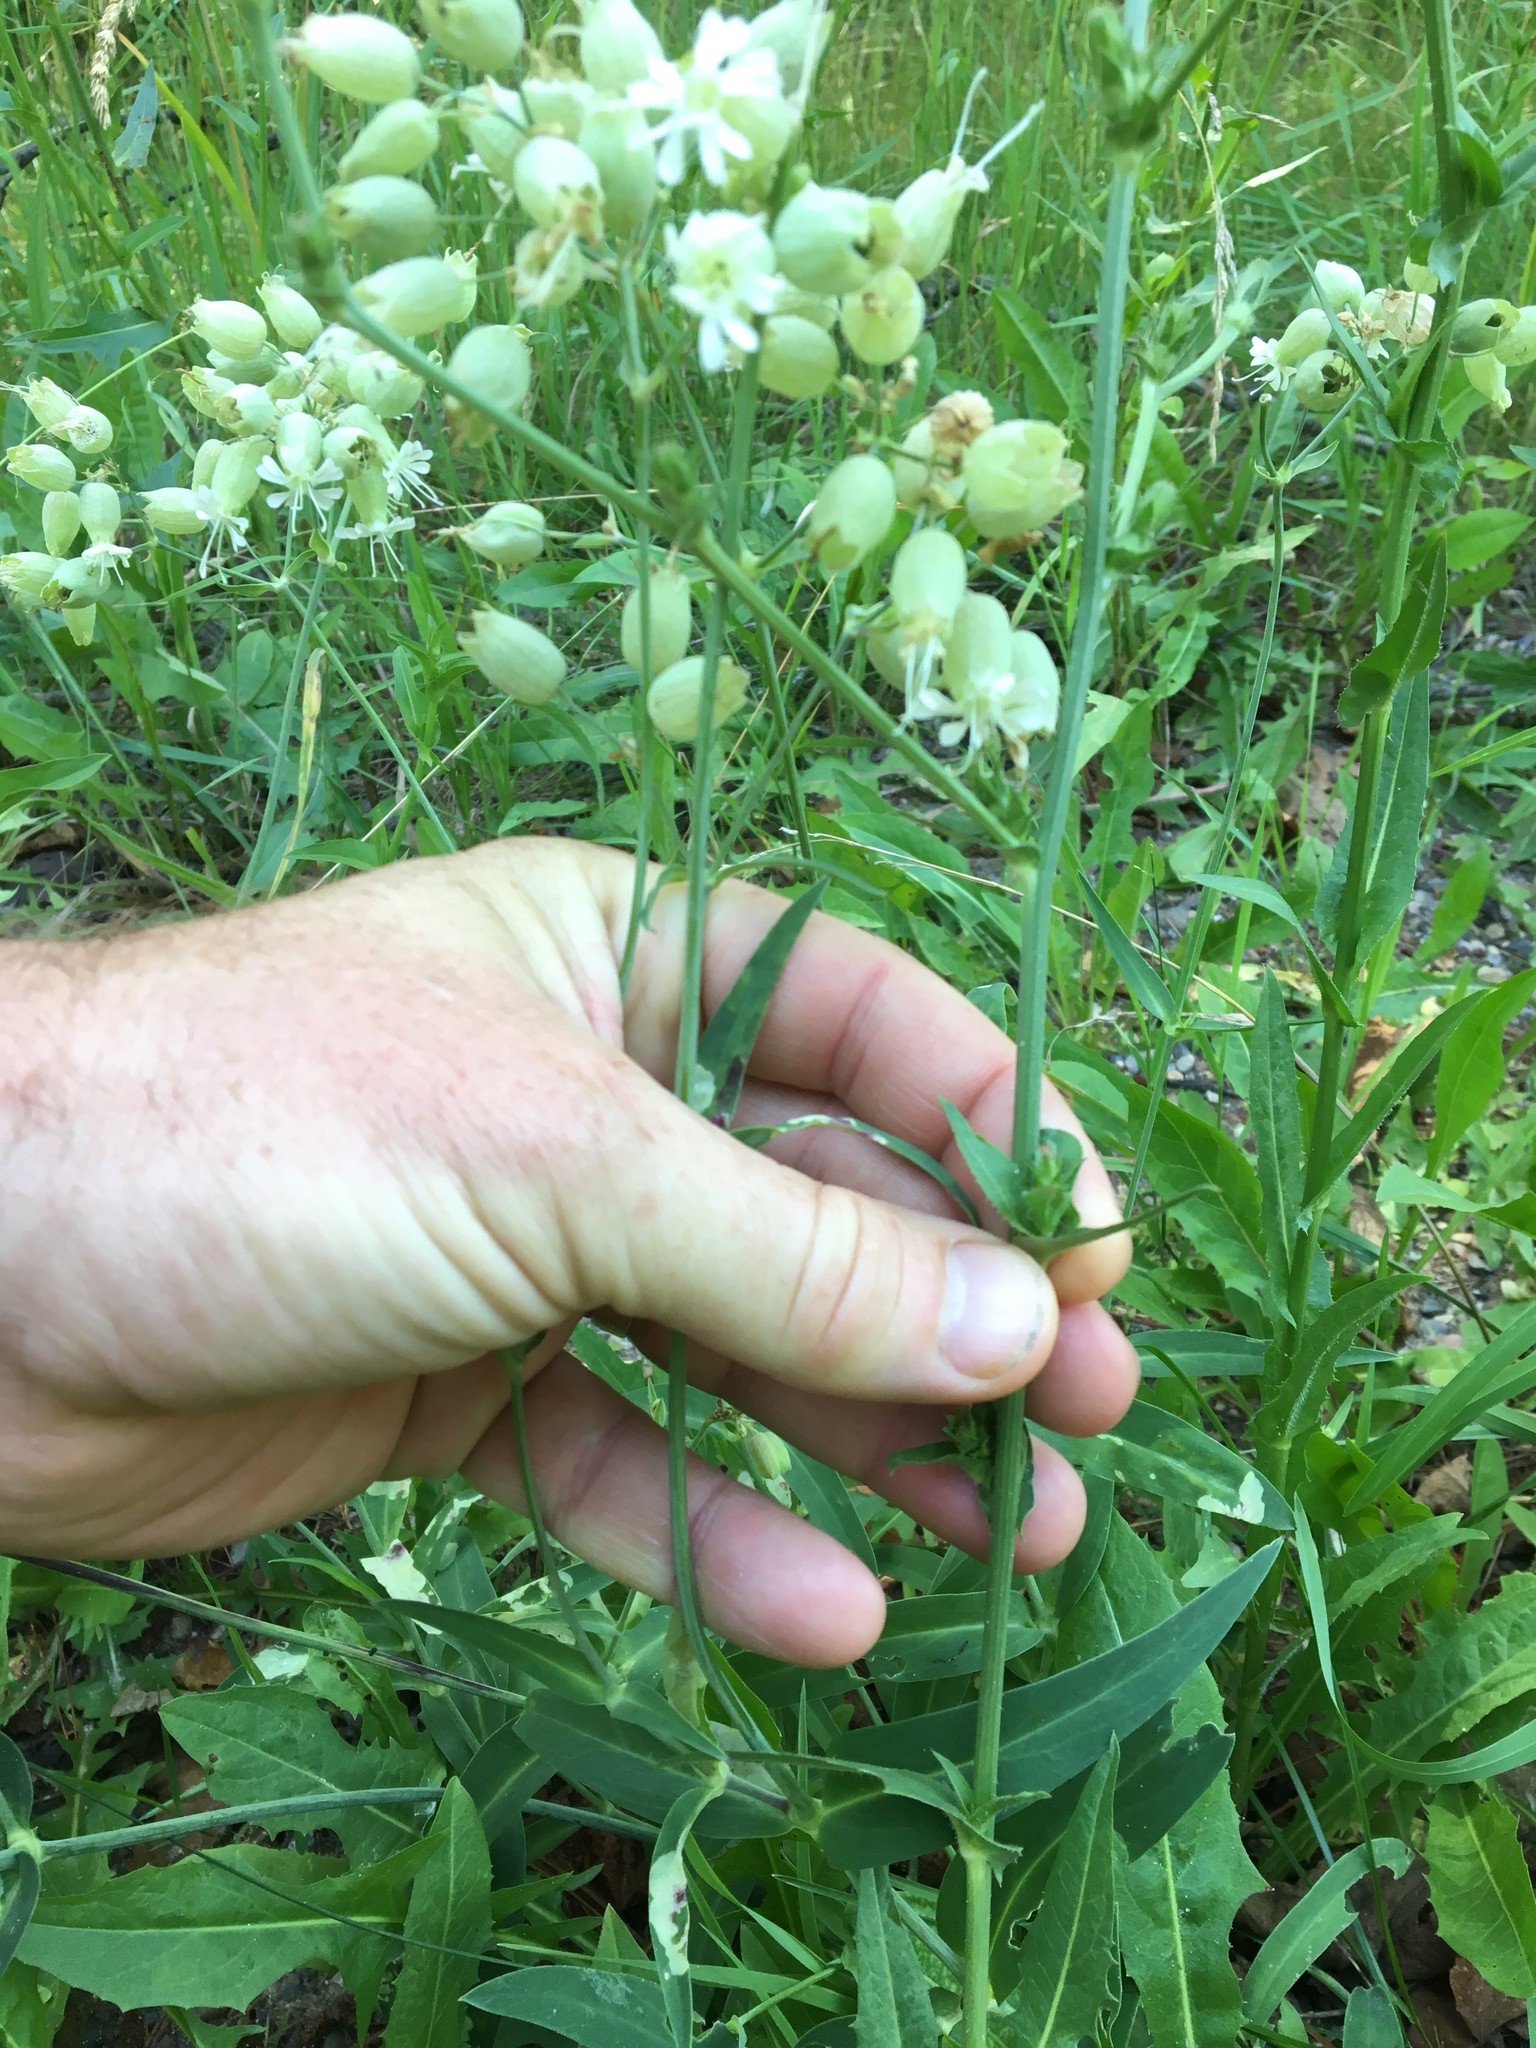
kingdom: Plantae
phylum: Tracheophyta
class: Magnoliopsida
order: Caryophyllales
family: Caryophyllaceae
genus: Silene
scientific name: Silene vulgaris
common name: Bladder campion
